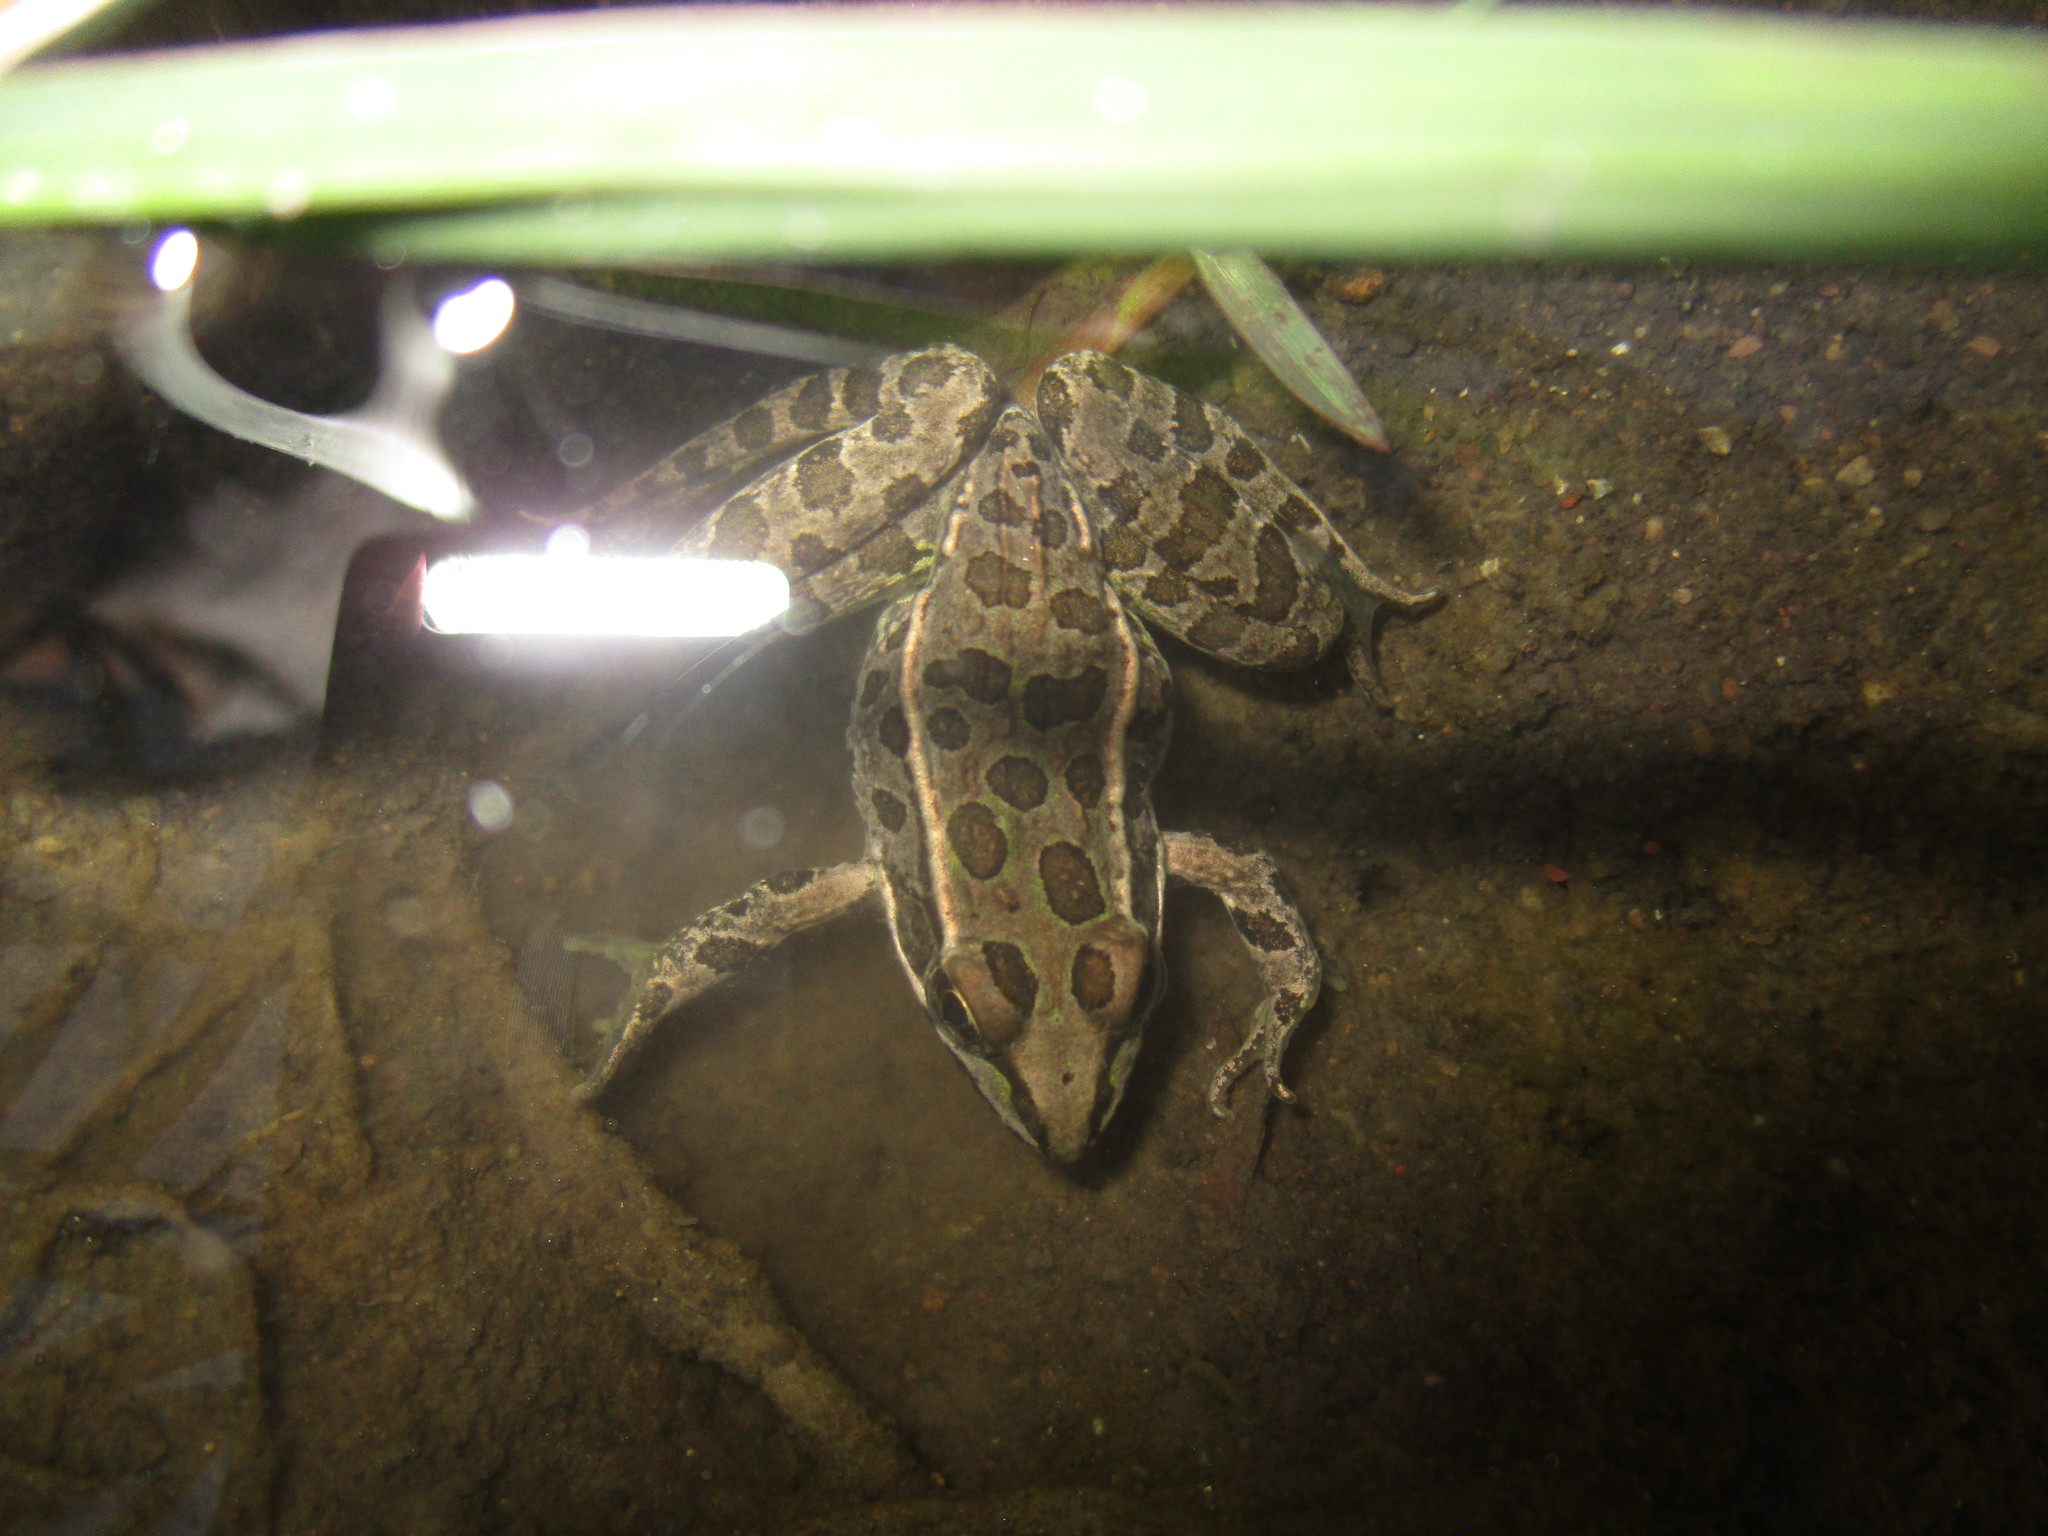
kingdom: Animalia
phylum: Chordata
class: Amphibia
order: Anura
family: Ranidae
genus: Lithobates
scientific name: Lithobates neovolcanicus
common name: Transverse volcanic leopard frog
